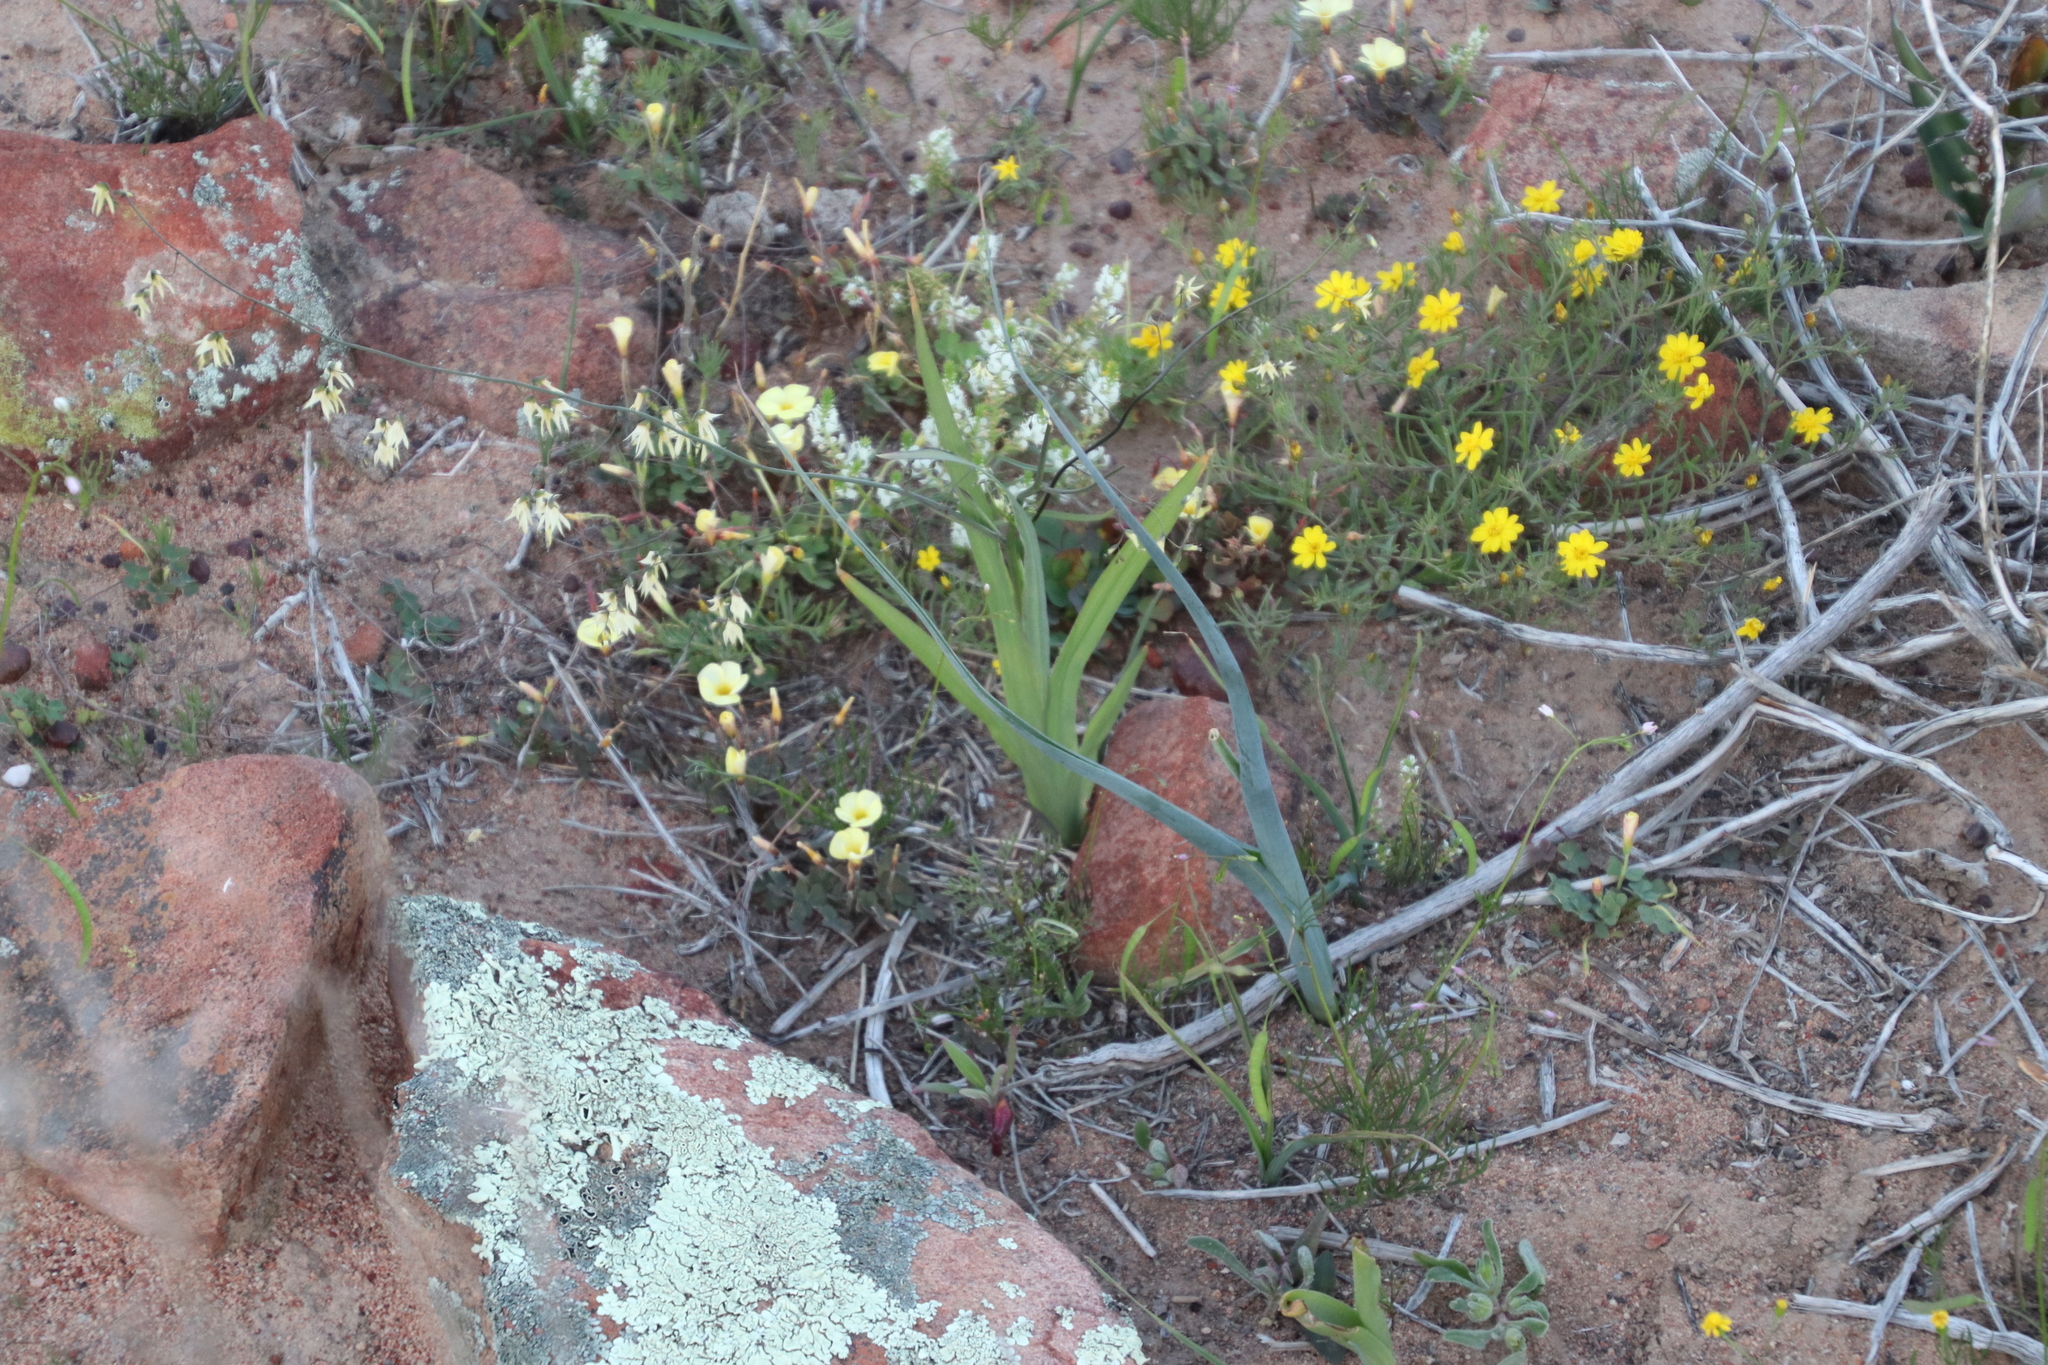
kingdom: Plantae
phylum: Tracheophyta
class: Liliopsida
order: Asparagales
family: Iridaceae
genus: Melasphaerula
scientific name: Melasphaerula graminea
